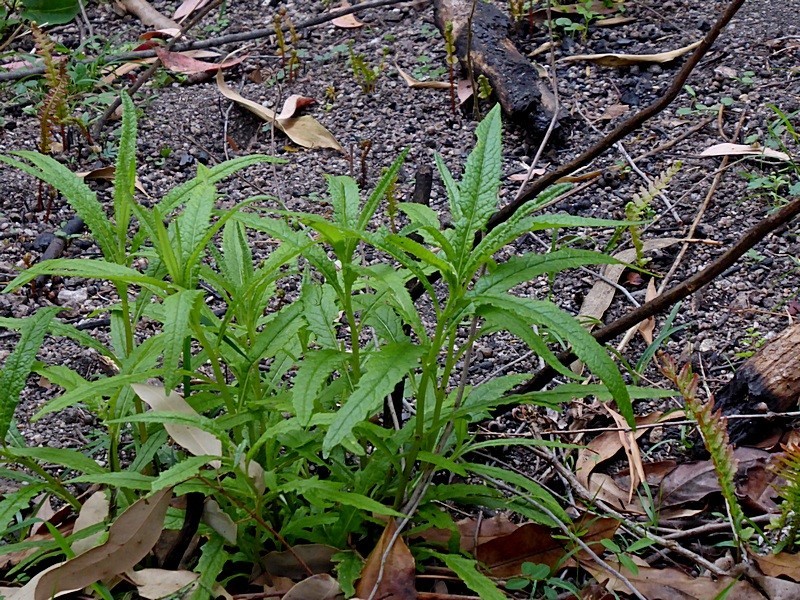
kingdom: Plantae
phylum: Tracheophyta
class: Magnoliopsida
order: Asterales
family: Asteraceae
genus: Senecio
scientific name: Senecio linearifolius
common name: Fireweed groundsel
